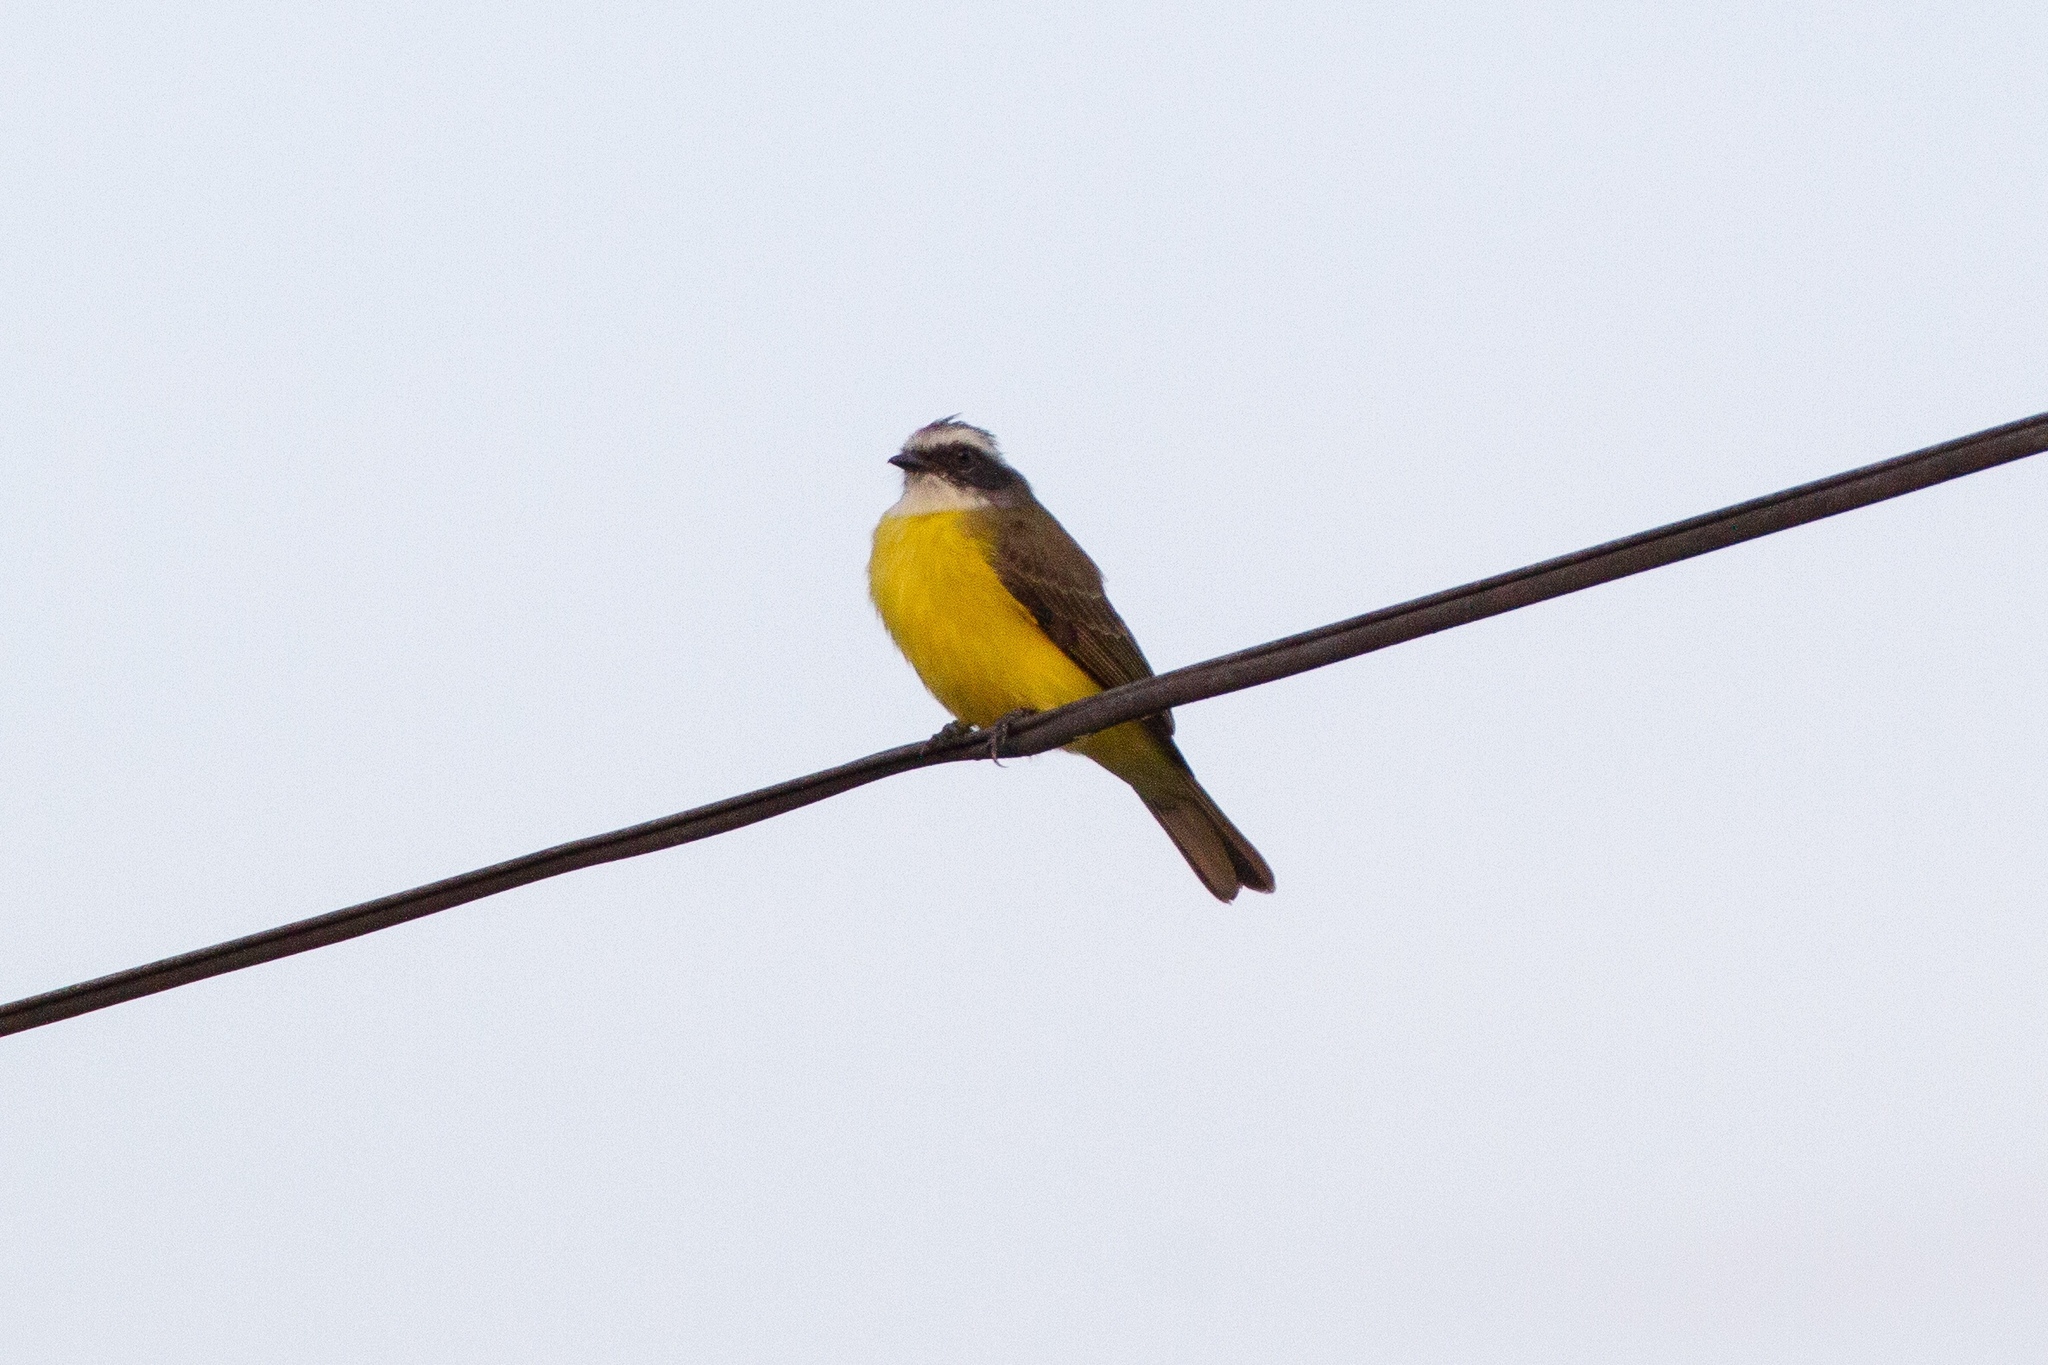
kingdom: Animalia
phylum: Chordata
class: Aves
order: Passeriformes
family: Tyrannidae
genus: Myiozetetes
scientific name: Myiozetetes similis
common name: Social flycatcher
